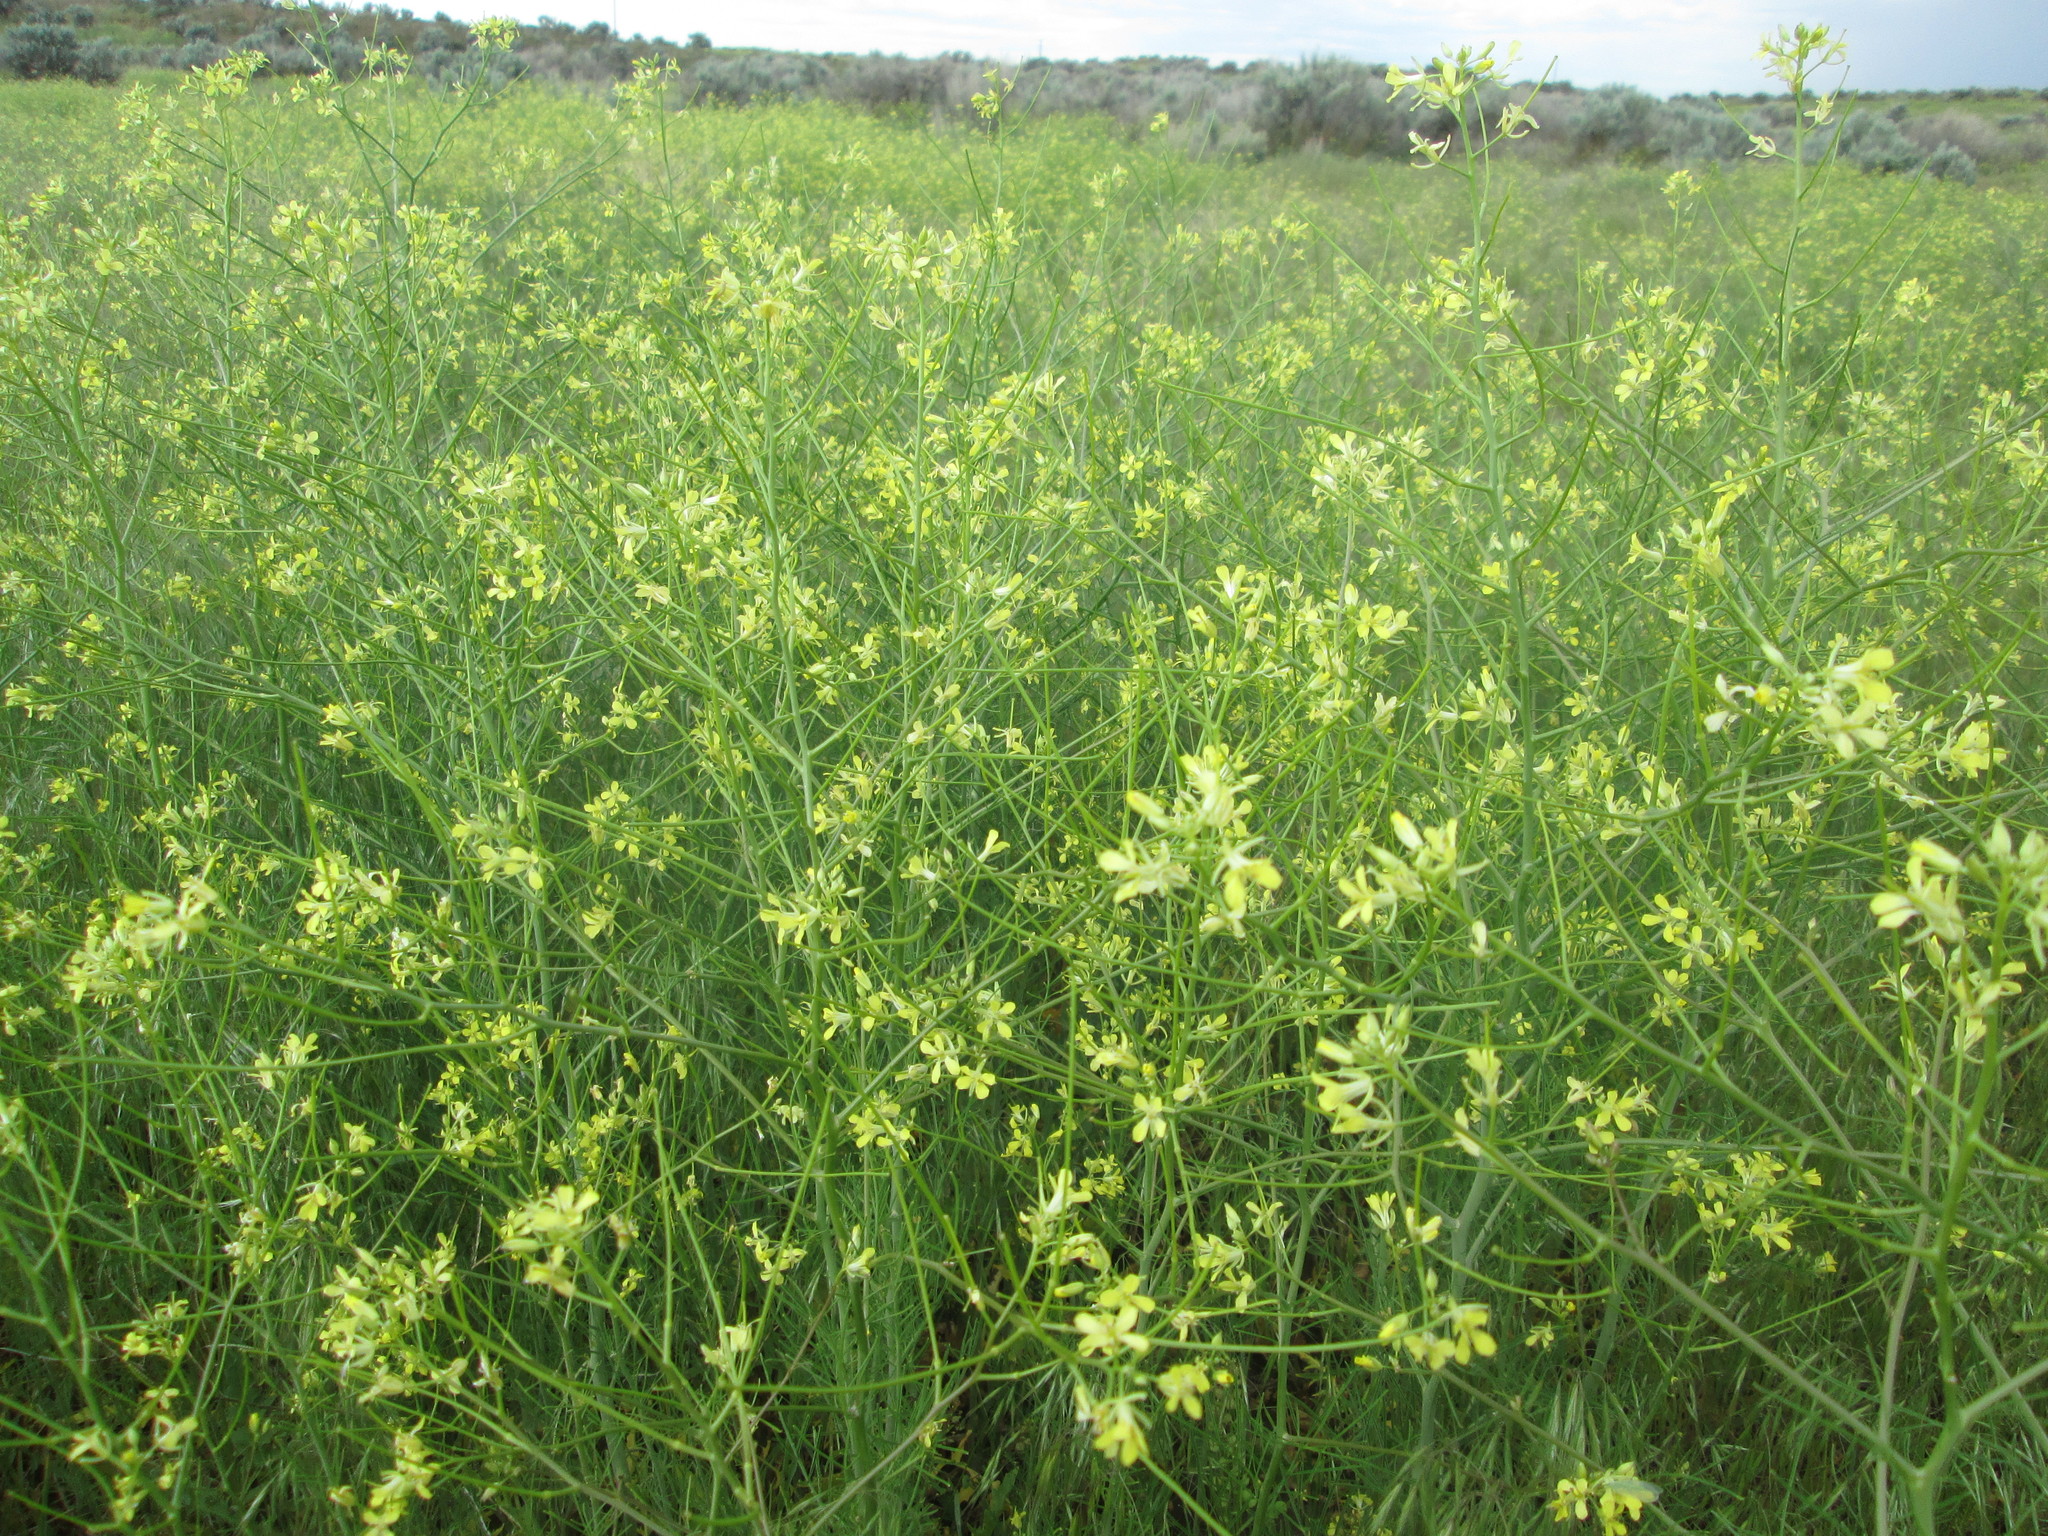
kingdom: Plantae
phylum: Tracheophyta
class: Magnoliopsida
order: Brassicales
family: Brassicaceae
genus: Sisymbrium
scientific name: Sisymbrium altissimum
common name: Tall rocket
